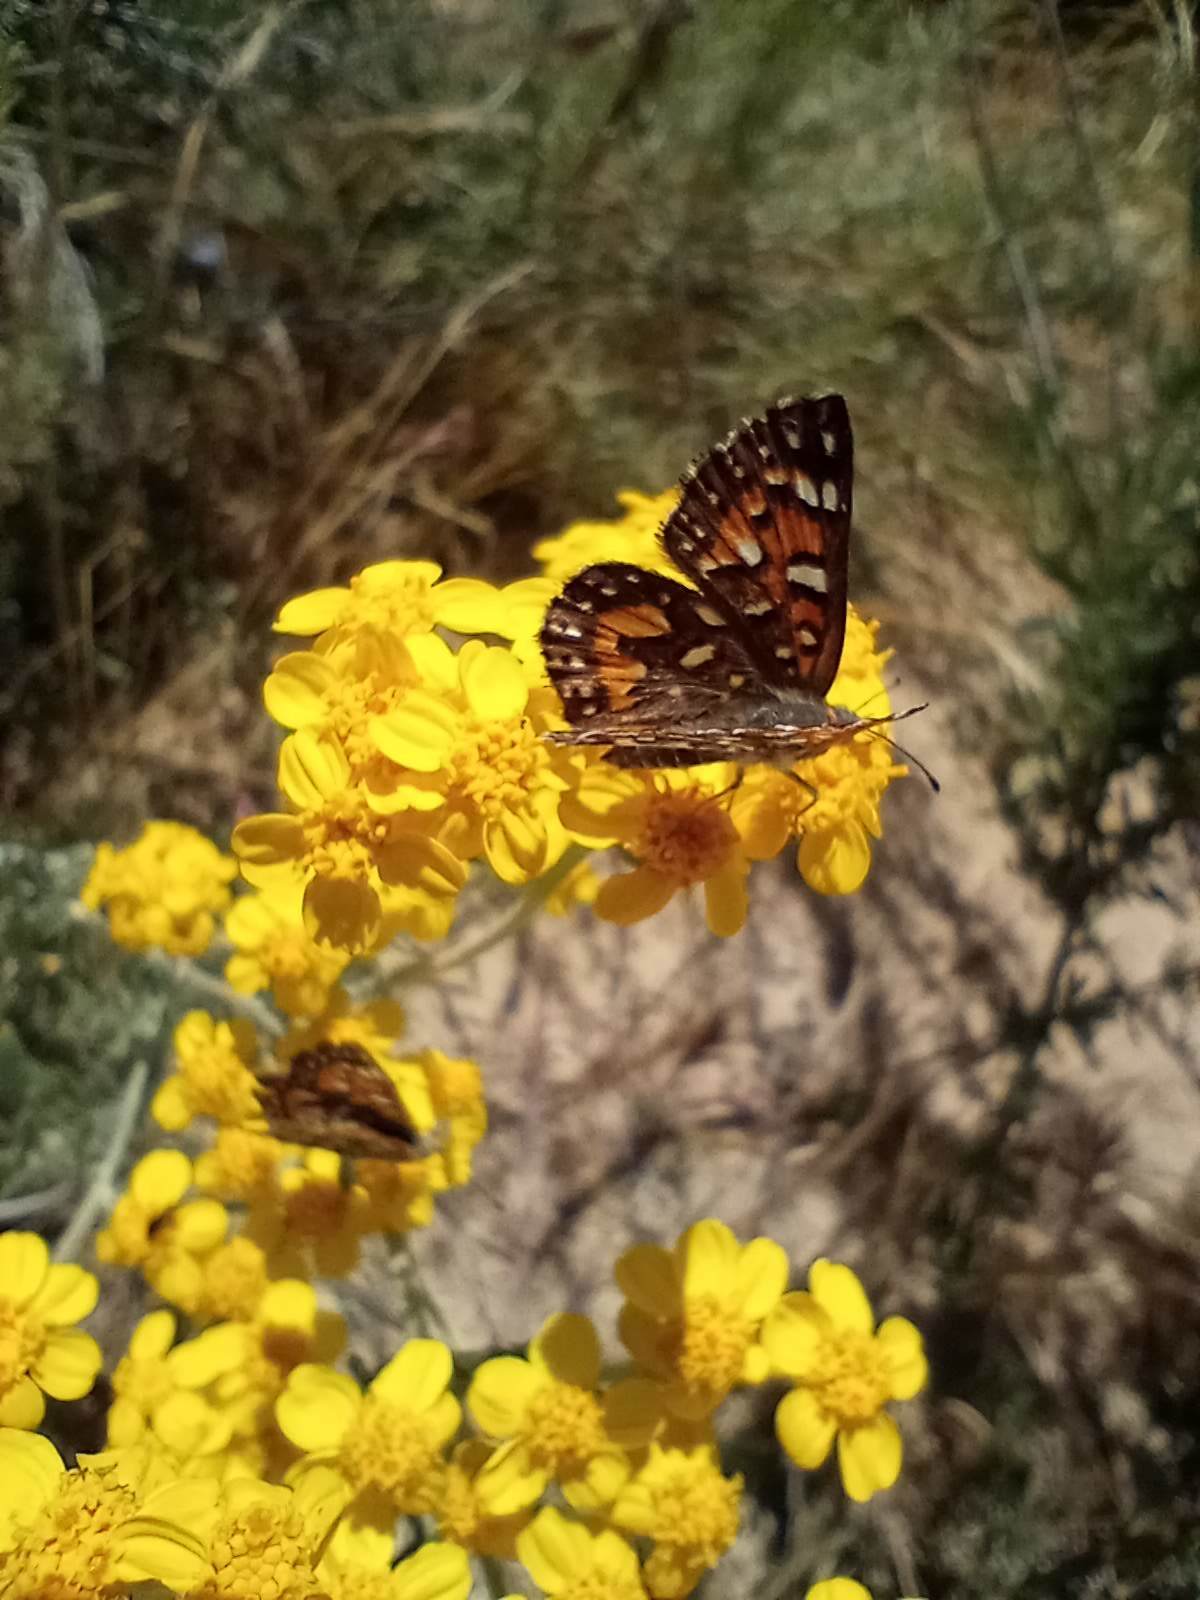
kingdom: Animalia
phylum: Arthropoda
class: Insecta
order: Lepidoptera
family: Riodinidae
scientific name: Riodinidae
